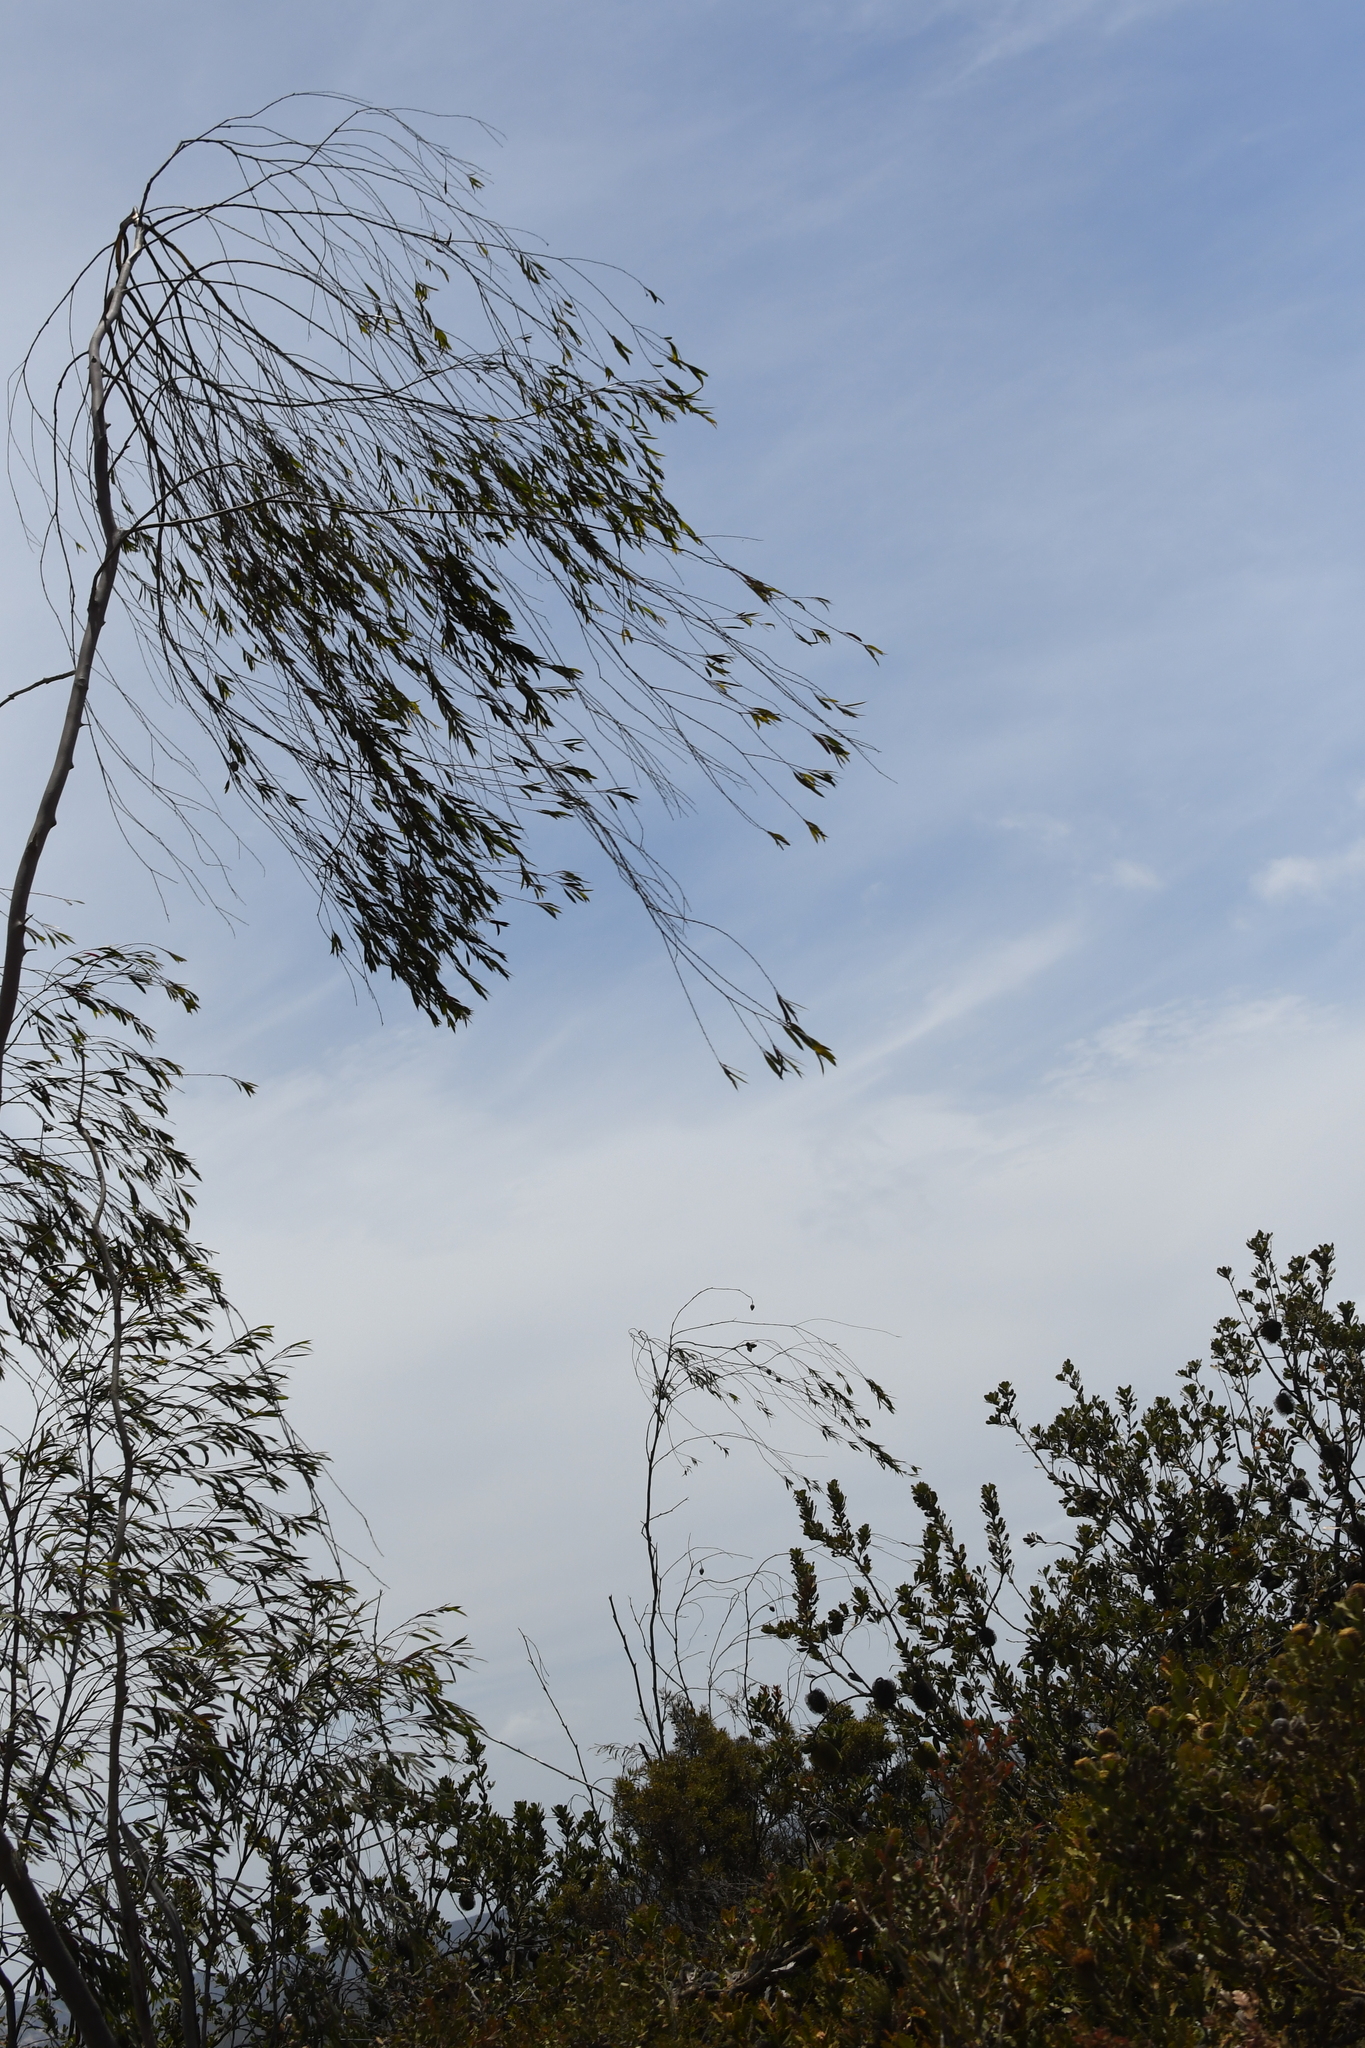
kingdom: Plantae
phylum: Tracheophyta
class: Magnoliopsida
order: Myrtales
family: Myrtaceae
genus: Eucalyptus
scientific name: Eucalyptus sepulcralis
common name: Weeping mallee
